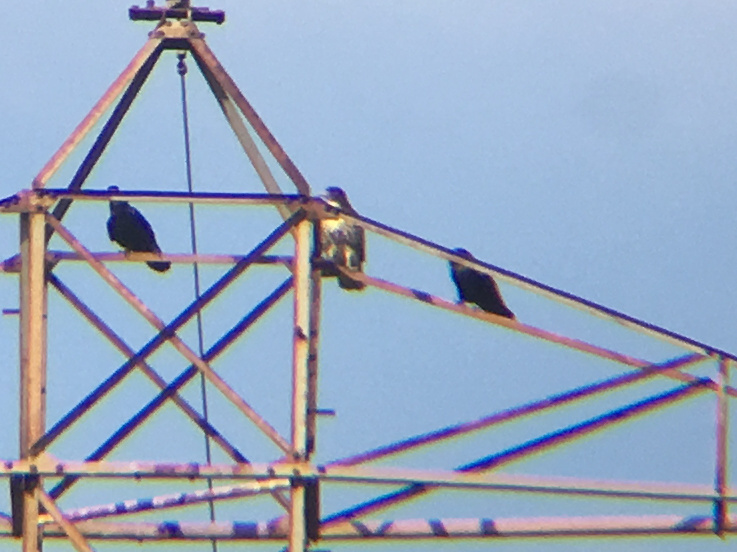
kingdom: Animalia
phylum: Chordata
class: Aves
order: Accipitriformes
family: Accipitridae
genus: Buteo
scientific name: Buteo jamaicensis
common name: Red-tailed hawk
